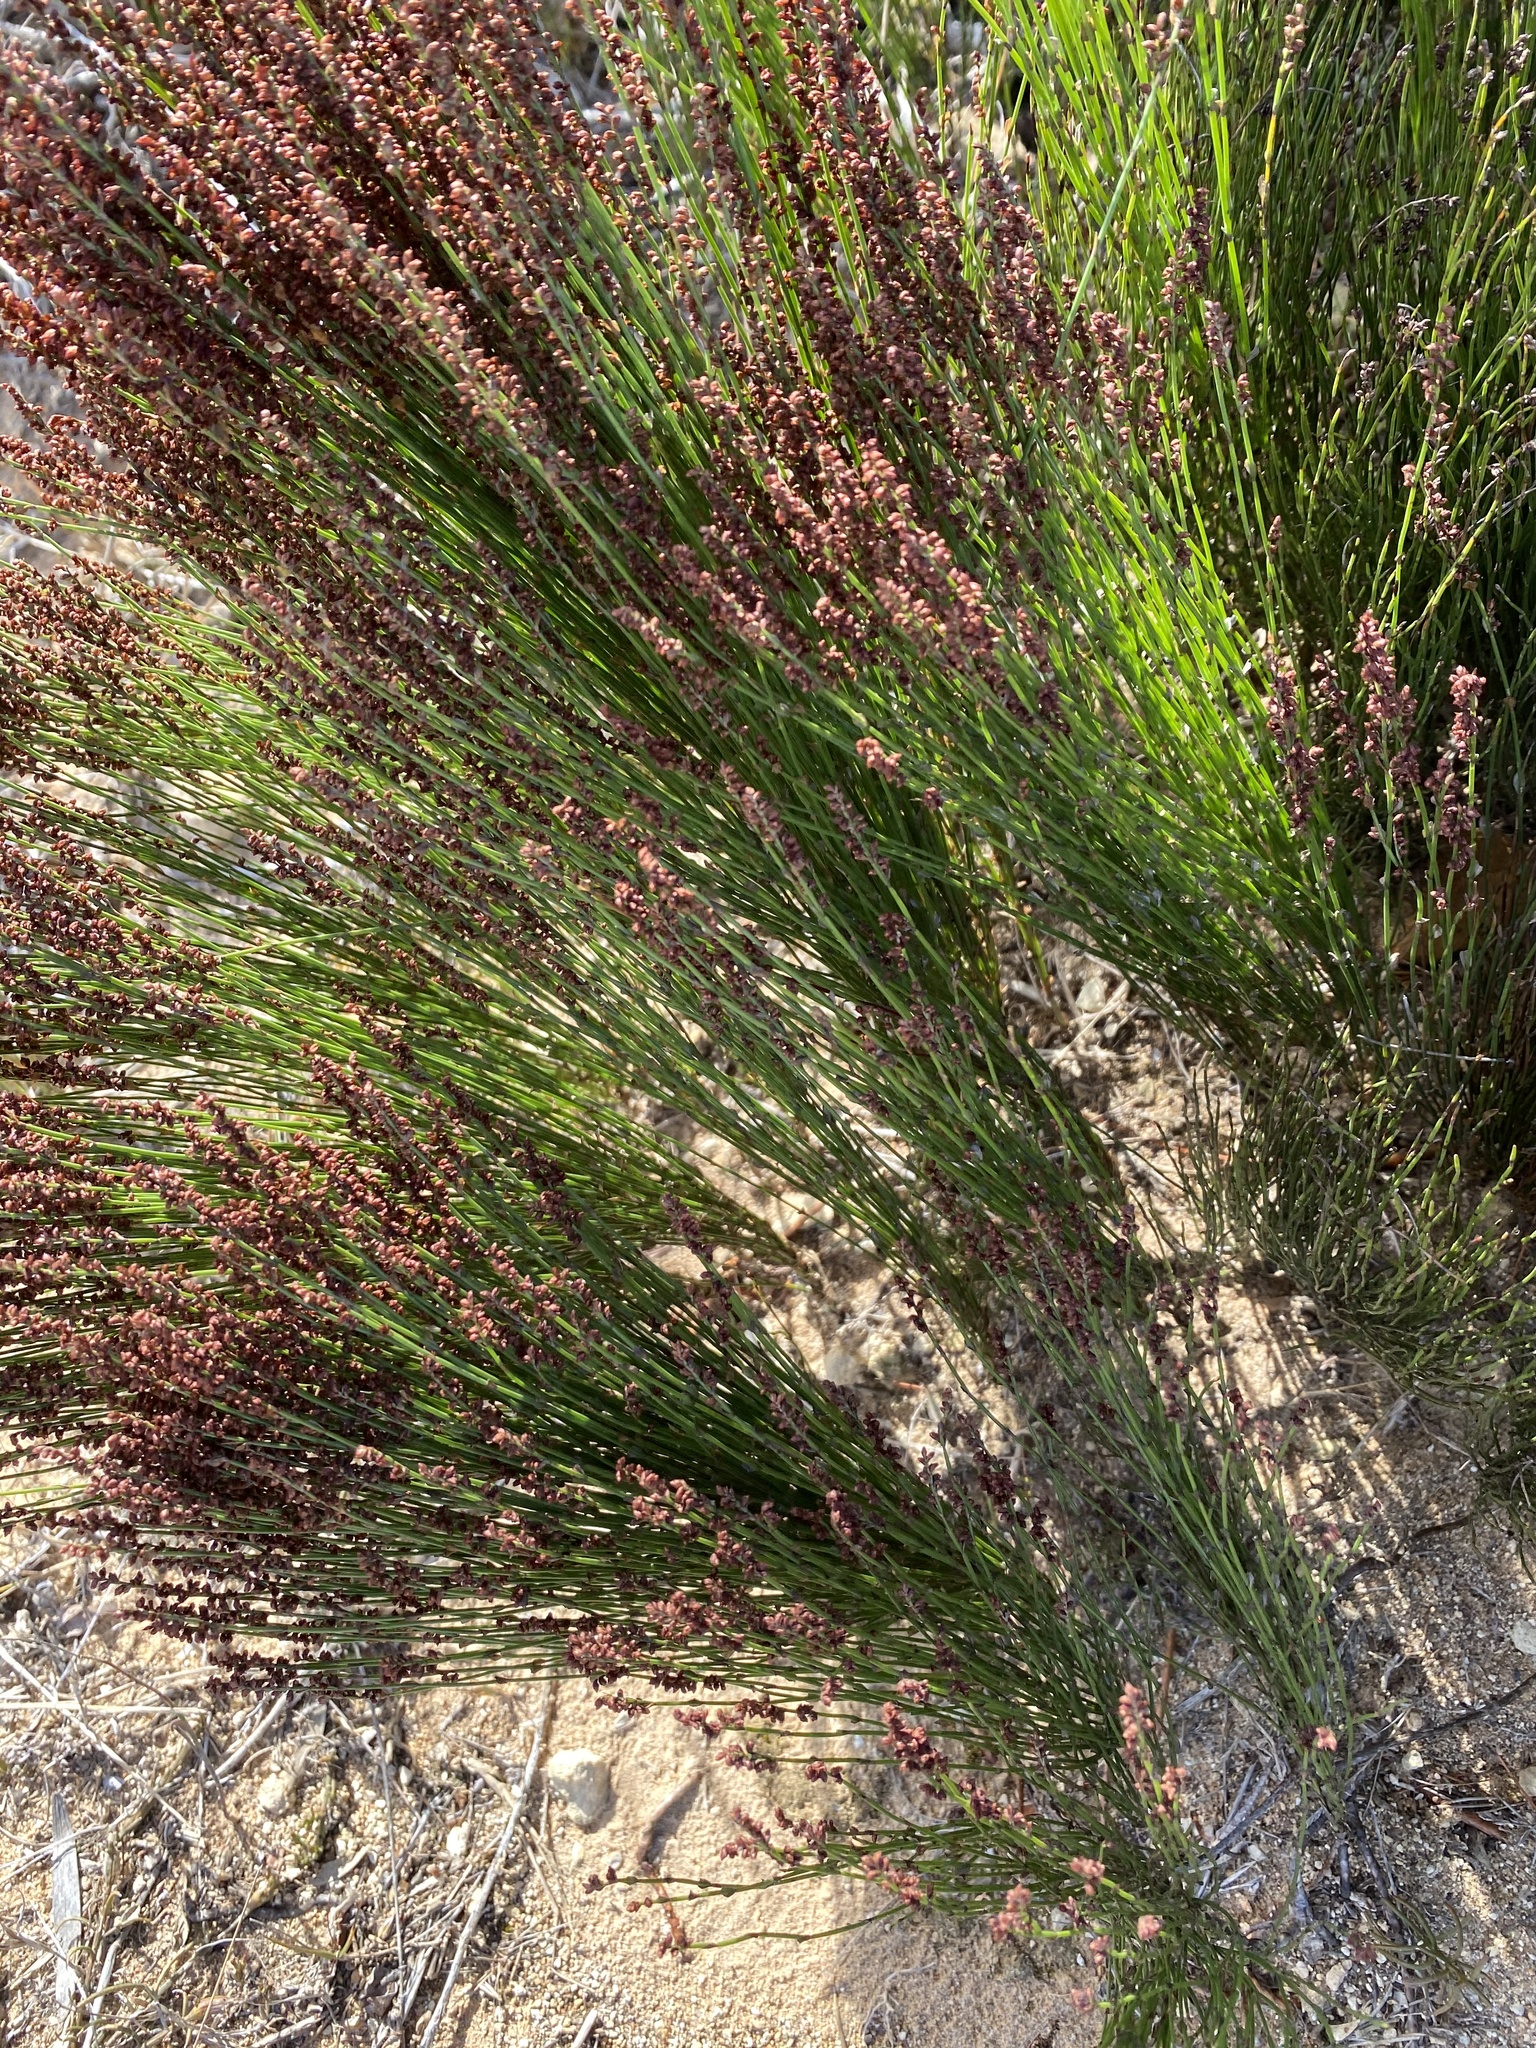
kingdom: Plantae
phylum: Tracheophyta
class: Liliopsida
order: Poales
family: Restionaceae
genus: Elegia
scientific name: Elegia microcarpa
